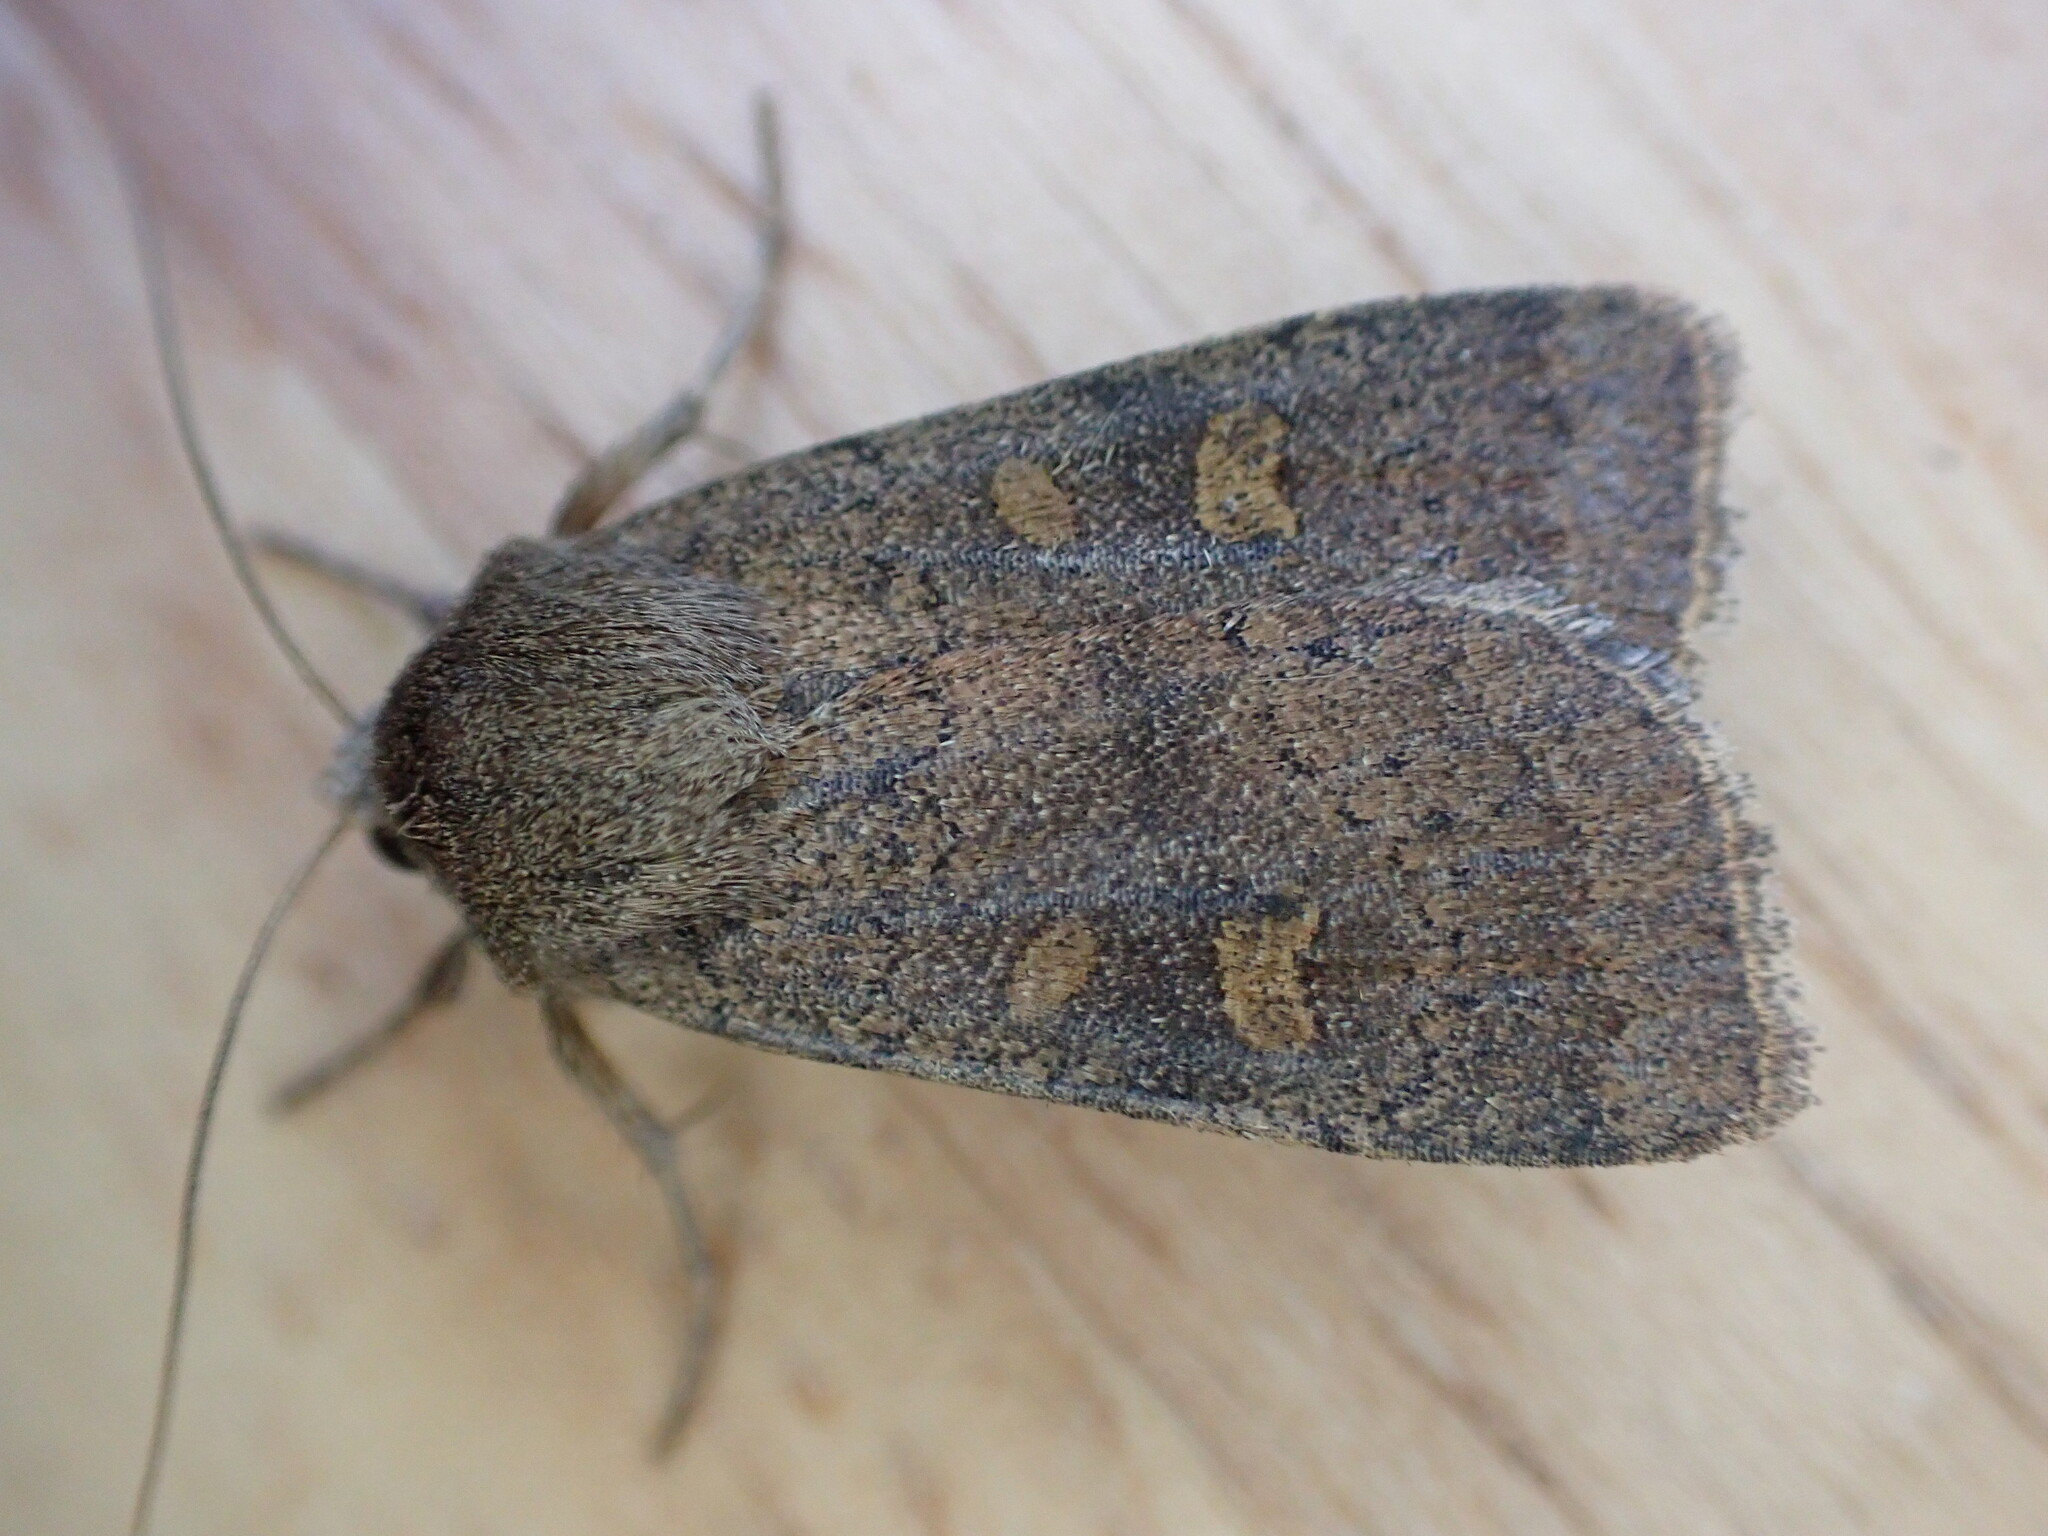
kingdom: Animalia
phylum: Arthropoda
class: Insecta
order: Lepidoptera
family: Noctuidae
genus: Xestia
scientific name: Xestia xanthographa
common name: Square-spot rustic
